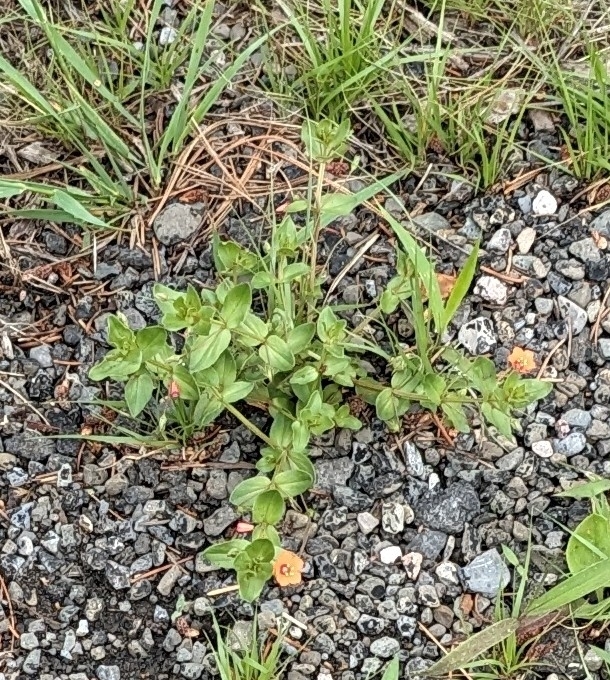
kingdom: Plantae
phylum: Tracheophyta
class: Magnoliopsida
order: Ericales
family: Primulaceae
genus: Lysimachia
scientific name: Lysimachia arvensis
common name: Scarlet pimpernel
